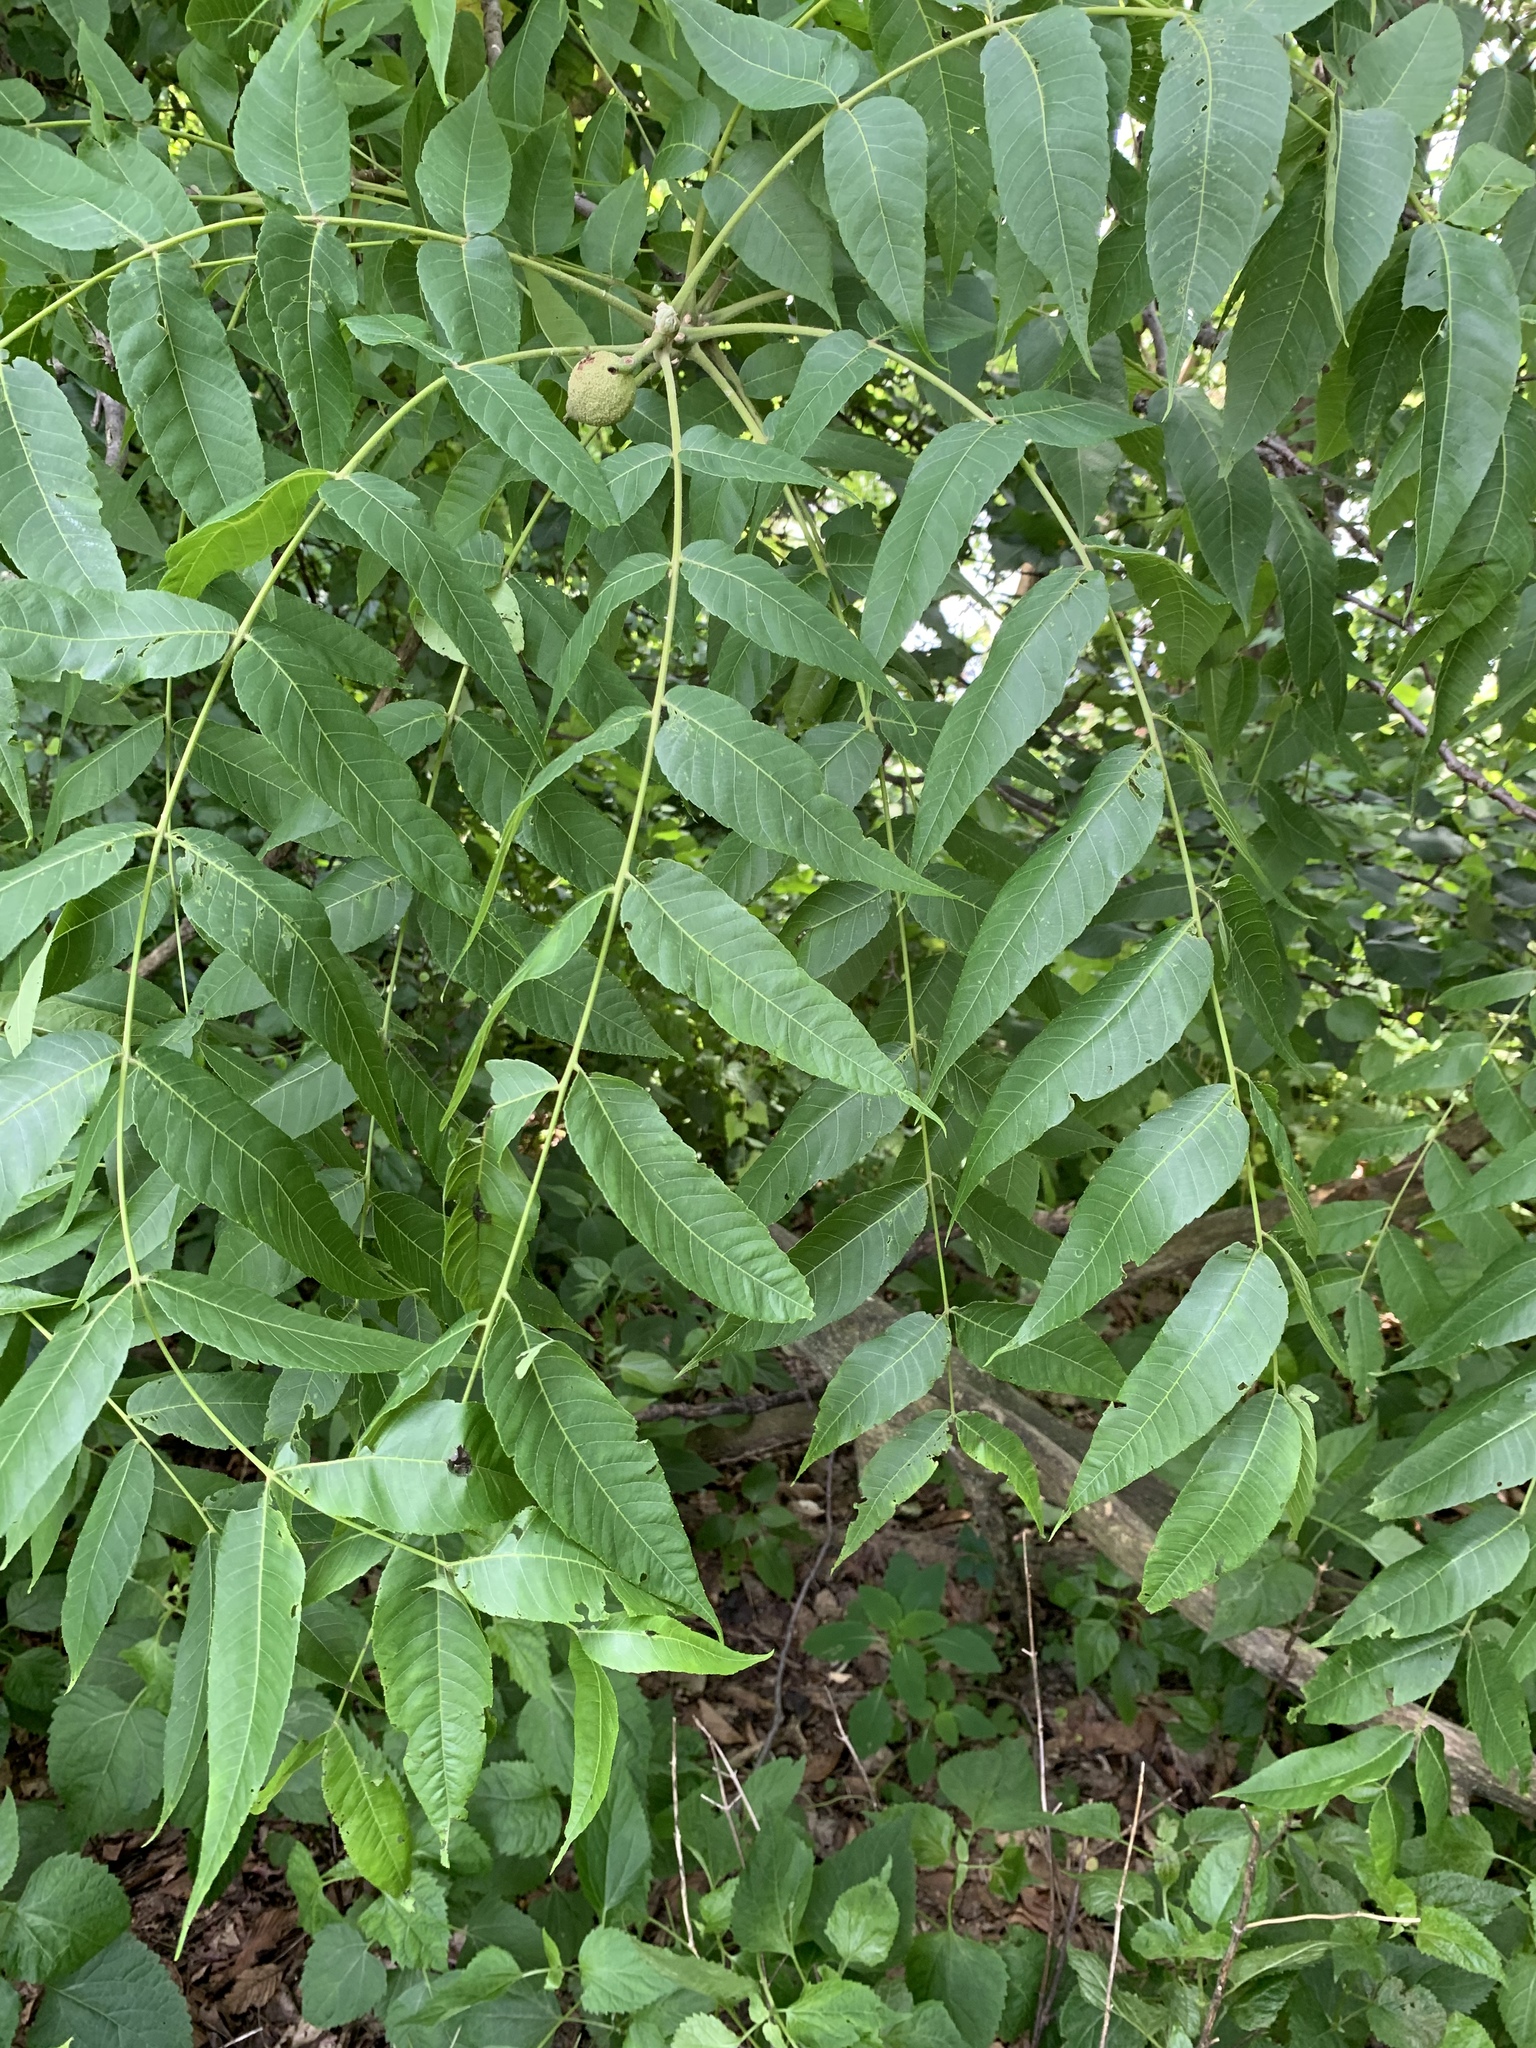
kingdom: Plantae
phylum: Tracheophyta
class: Magnoliopsida
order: Fagales
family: Juglandaceae
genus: Juglans
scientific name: Juglans nigra
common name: Black walnut
